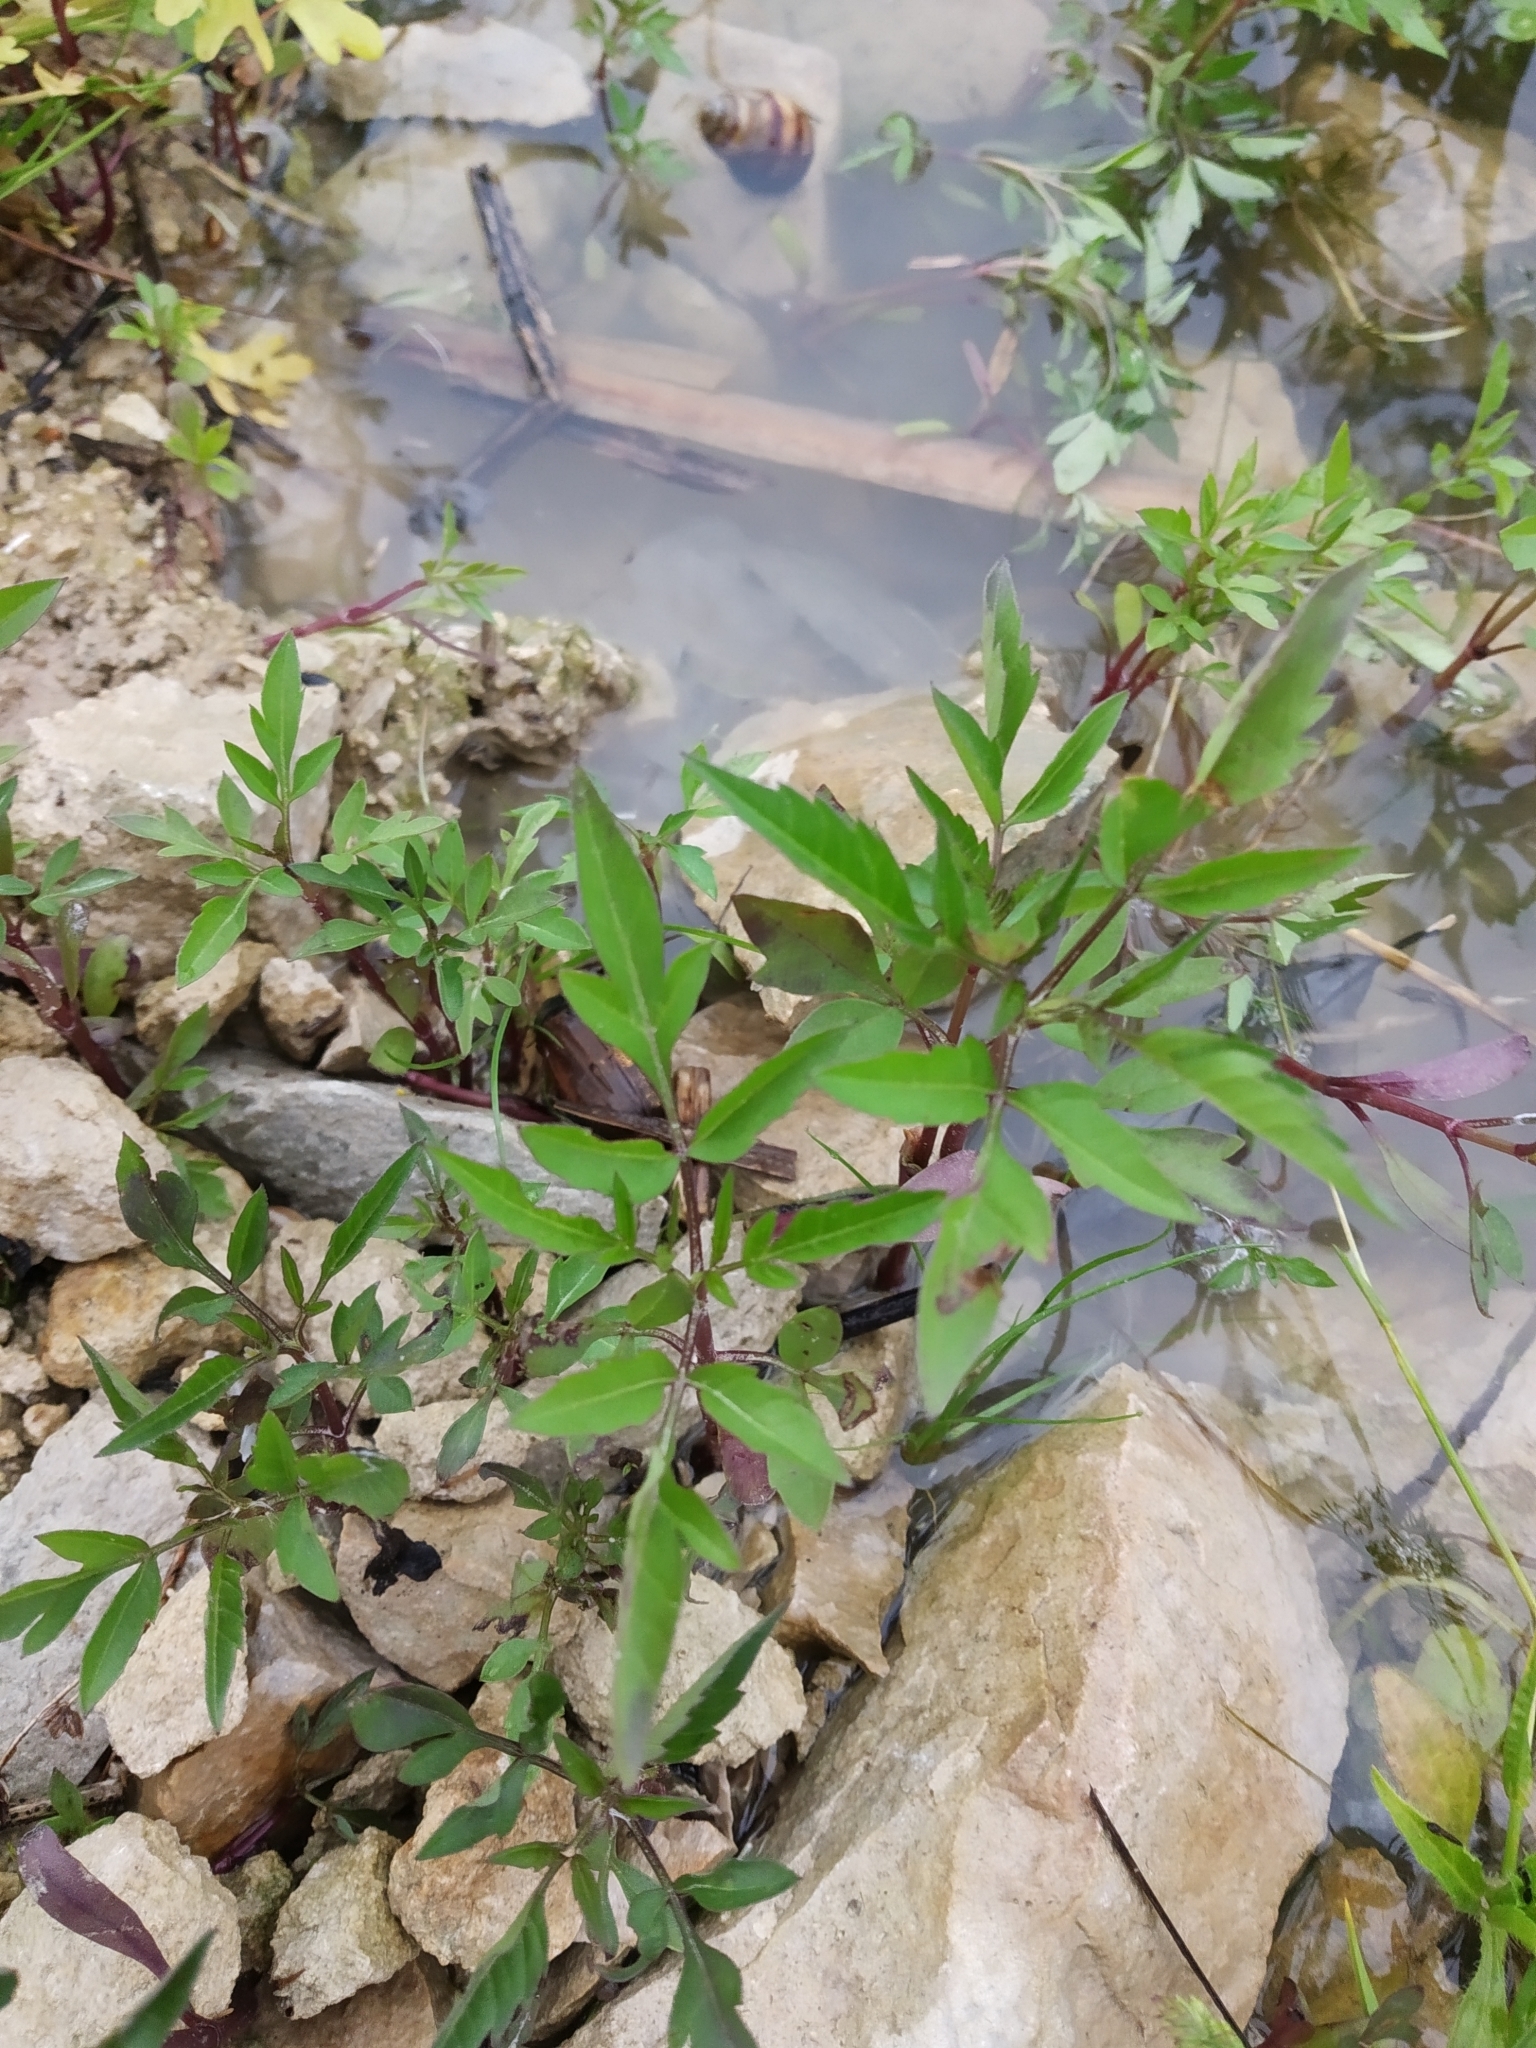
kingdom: Plantae
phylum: Tracheophyta
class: Magnoliopsida
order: Asterales
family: Asteraceae
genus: Bidens
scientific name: Bidens frondosa
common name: Beggarticks
